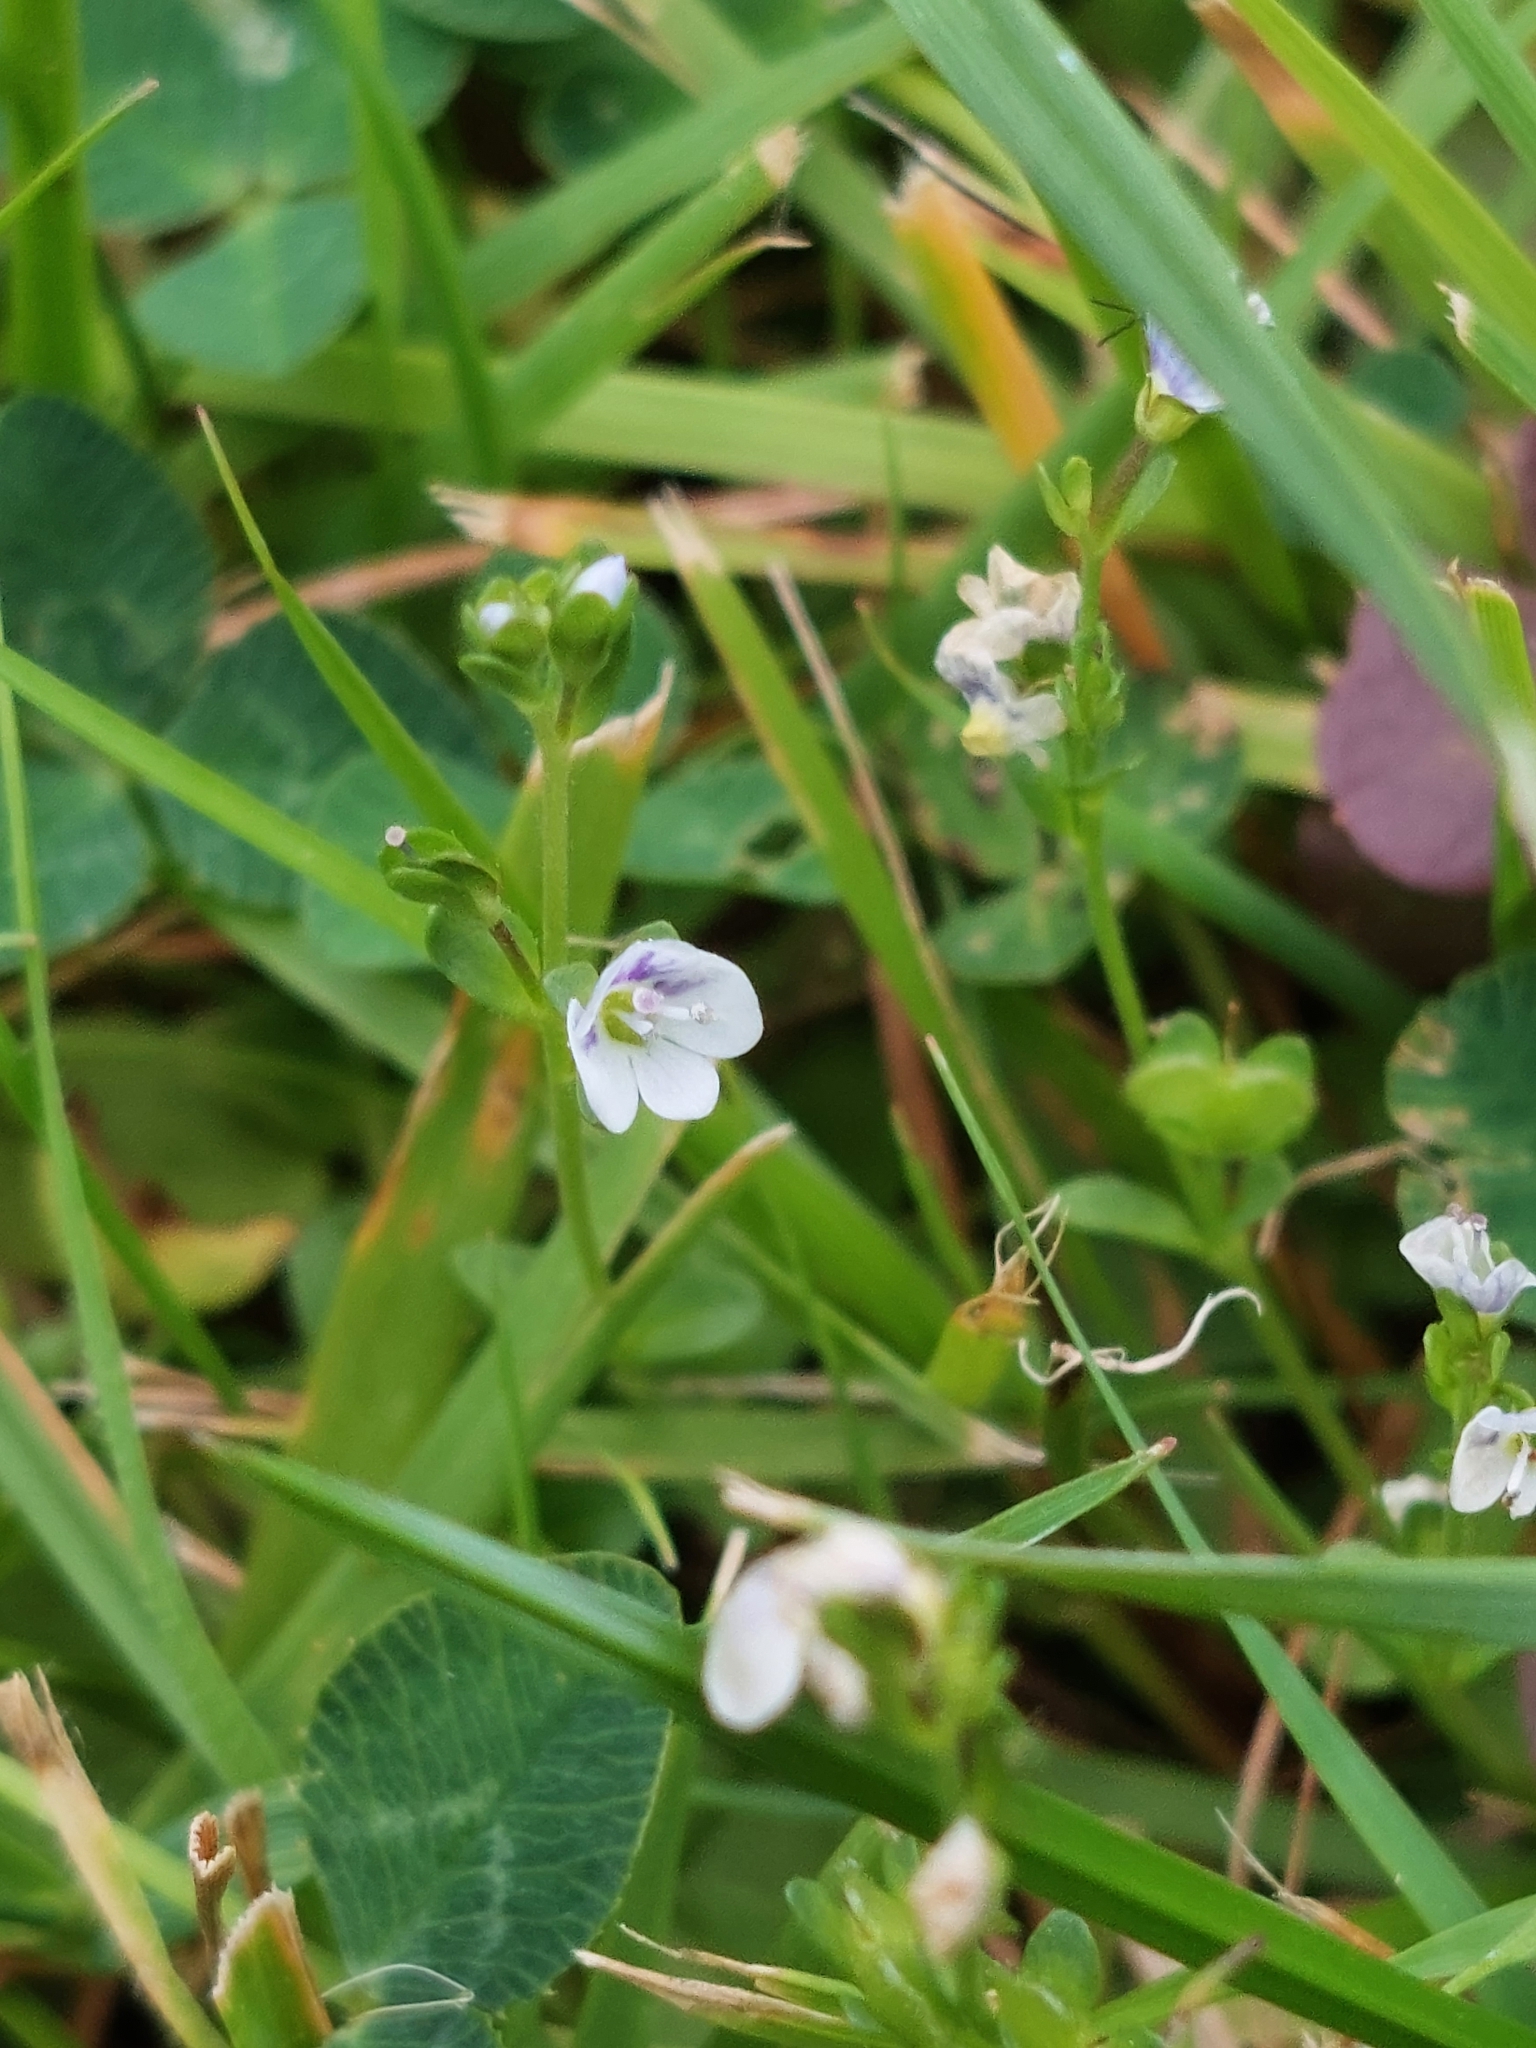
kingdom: Plantae
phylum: Tracheophyta
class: Magnoliopsida
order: Lamiales
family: Plantaginaceae
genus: Veronica
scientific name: Veronica serpyllifolia
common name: Thyme-leaved speedwell
